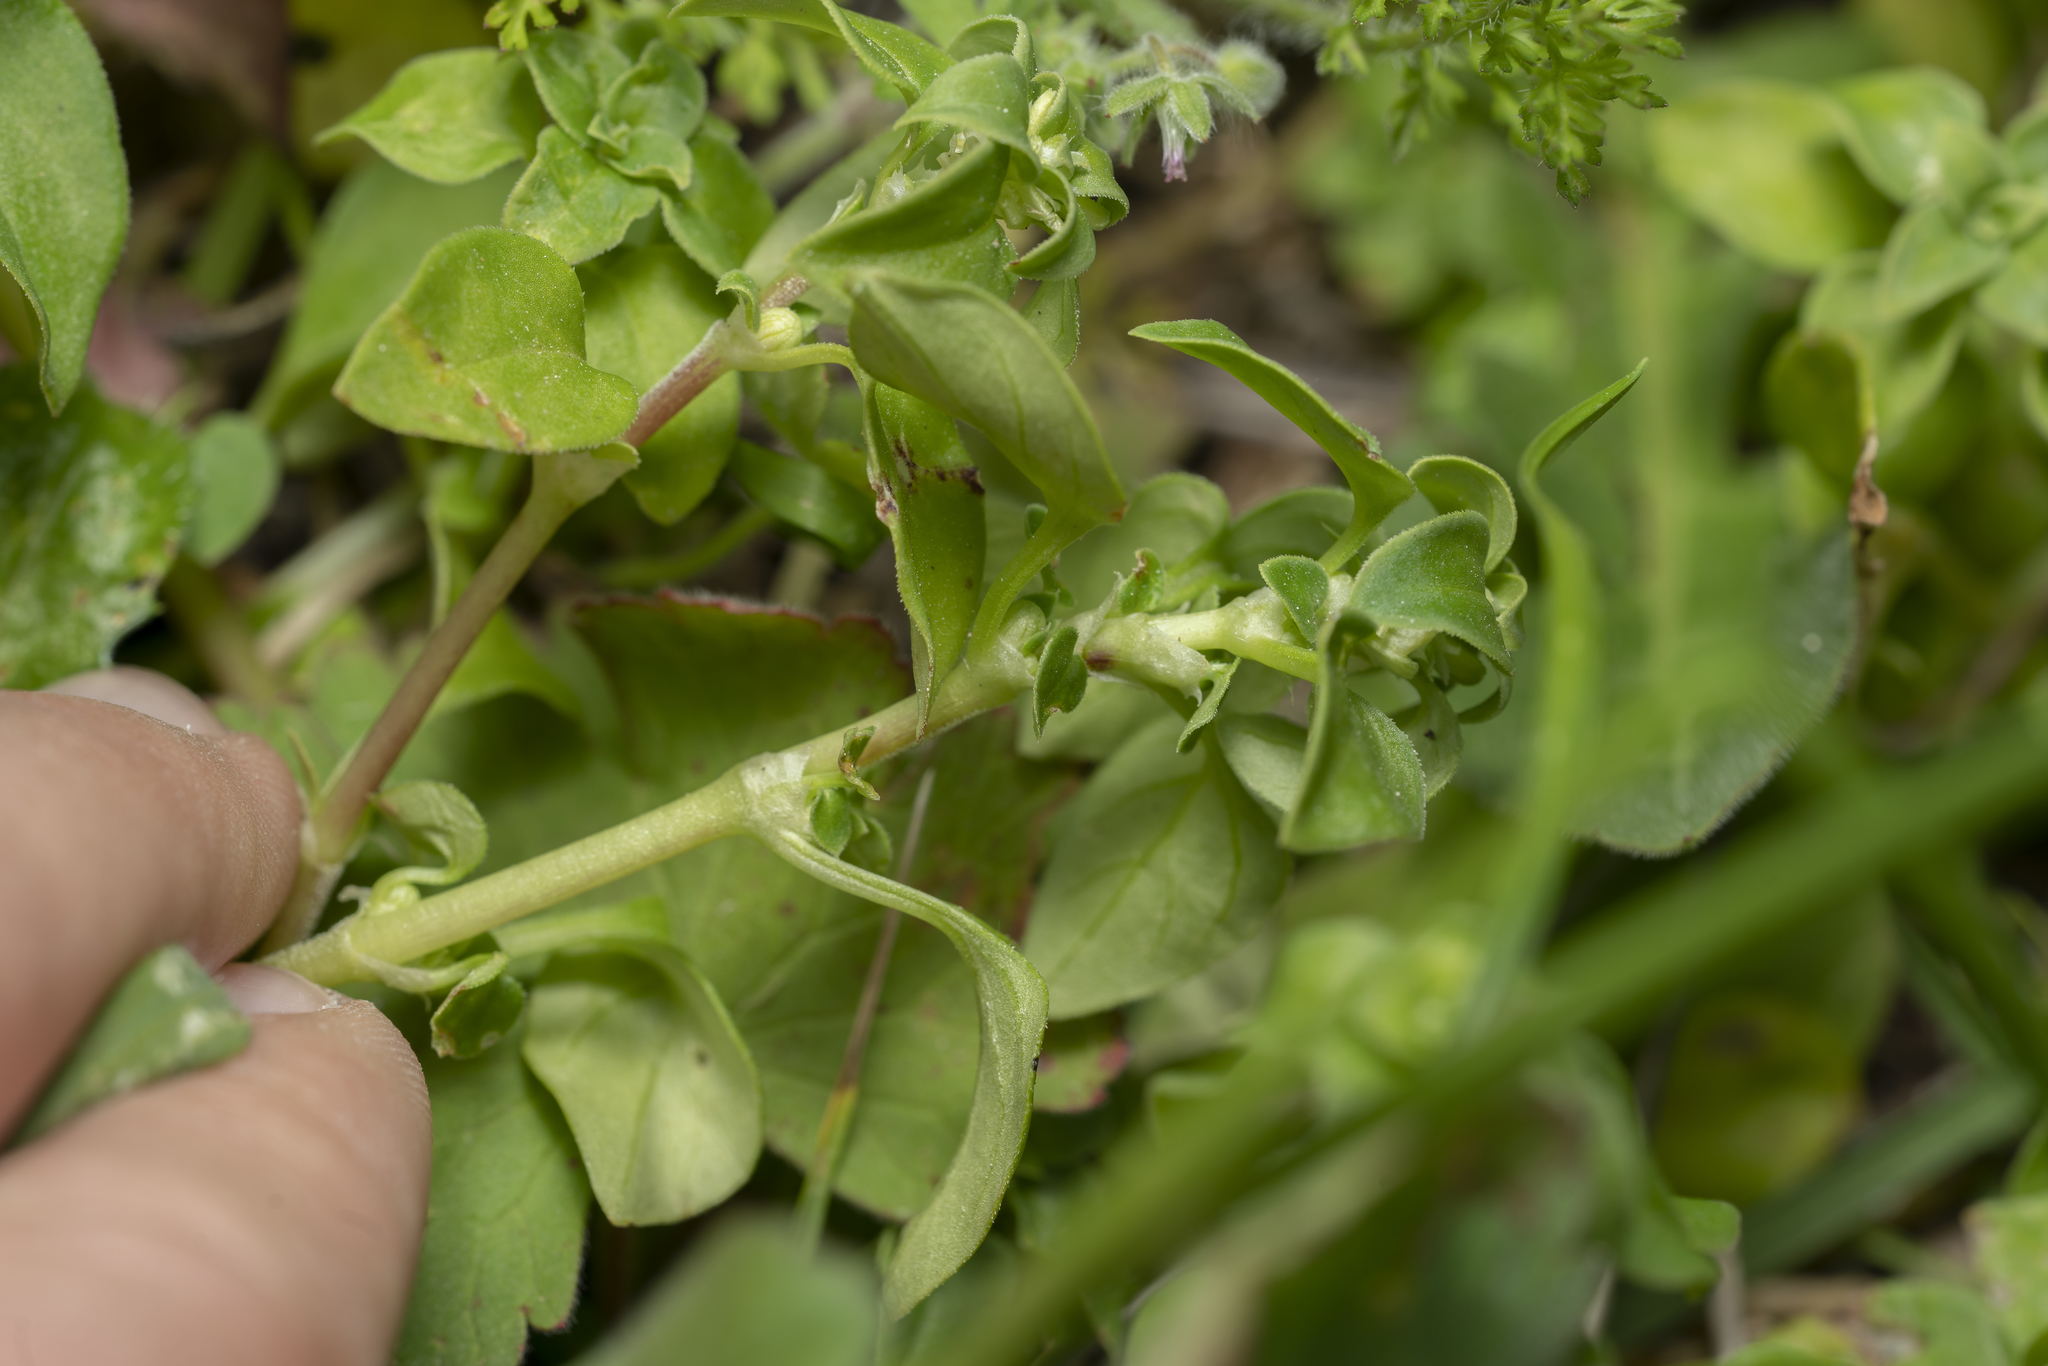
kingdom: Plantae
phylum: Tracheophyta
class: Magnoliopsida
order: Gentianales
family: Rubiaceae
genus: Theligonum
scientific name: Theligonum cynocrambe
